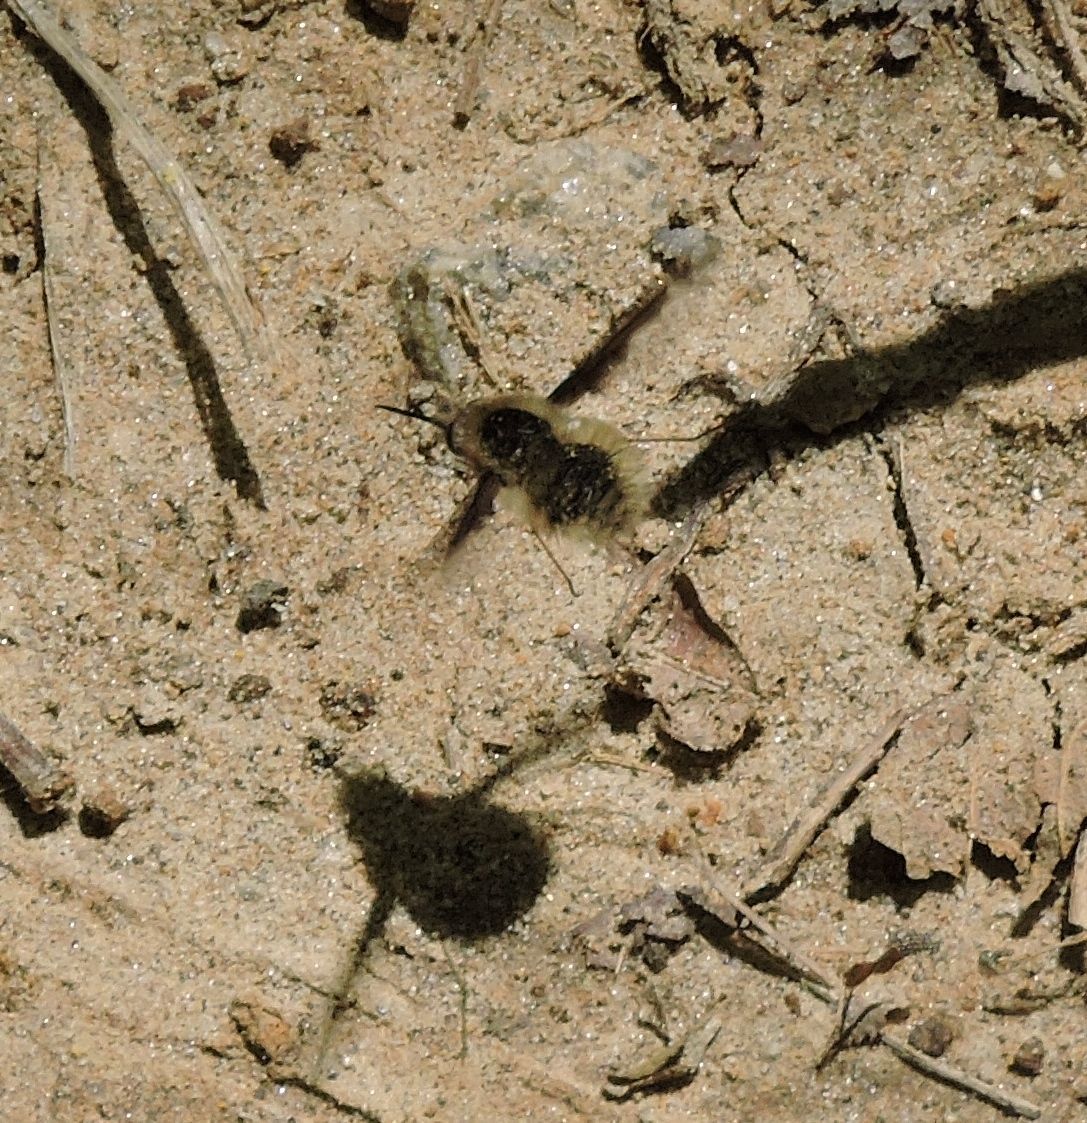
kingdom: Animalia
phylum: Arthropoda
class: Insecta
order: Diptera
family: Bombyliidae
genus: Bombylius
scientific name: Bombylius major
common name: Bee fly
